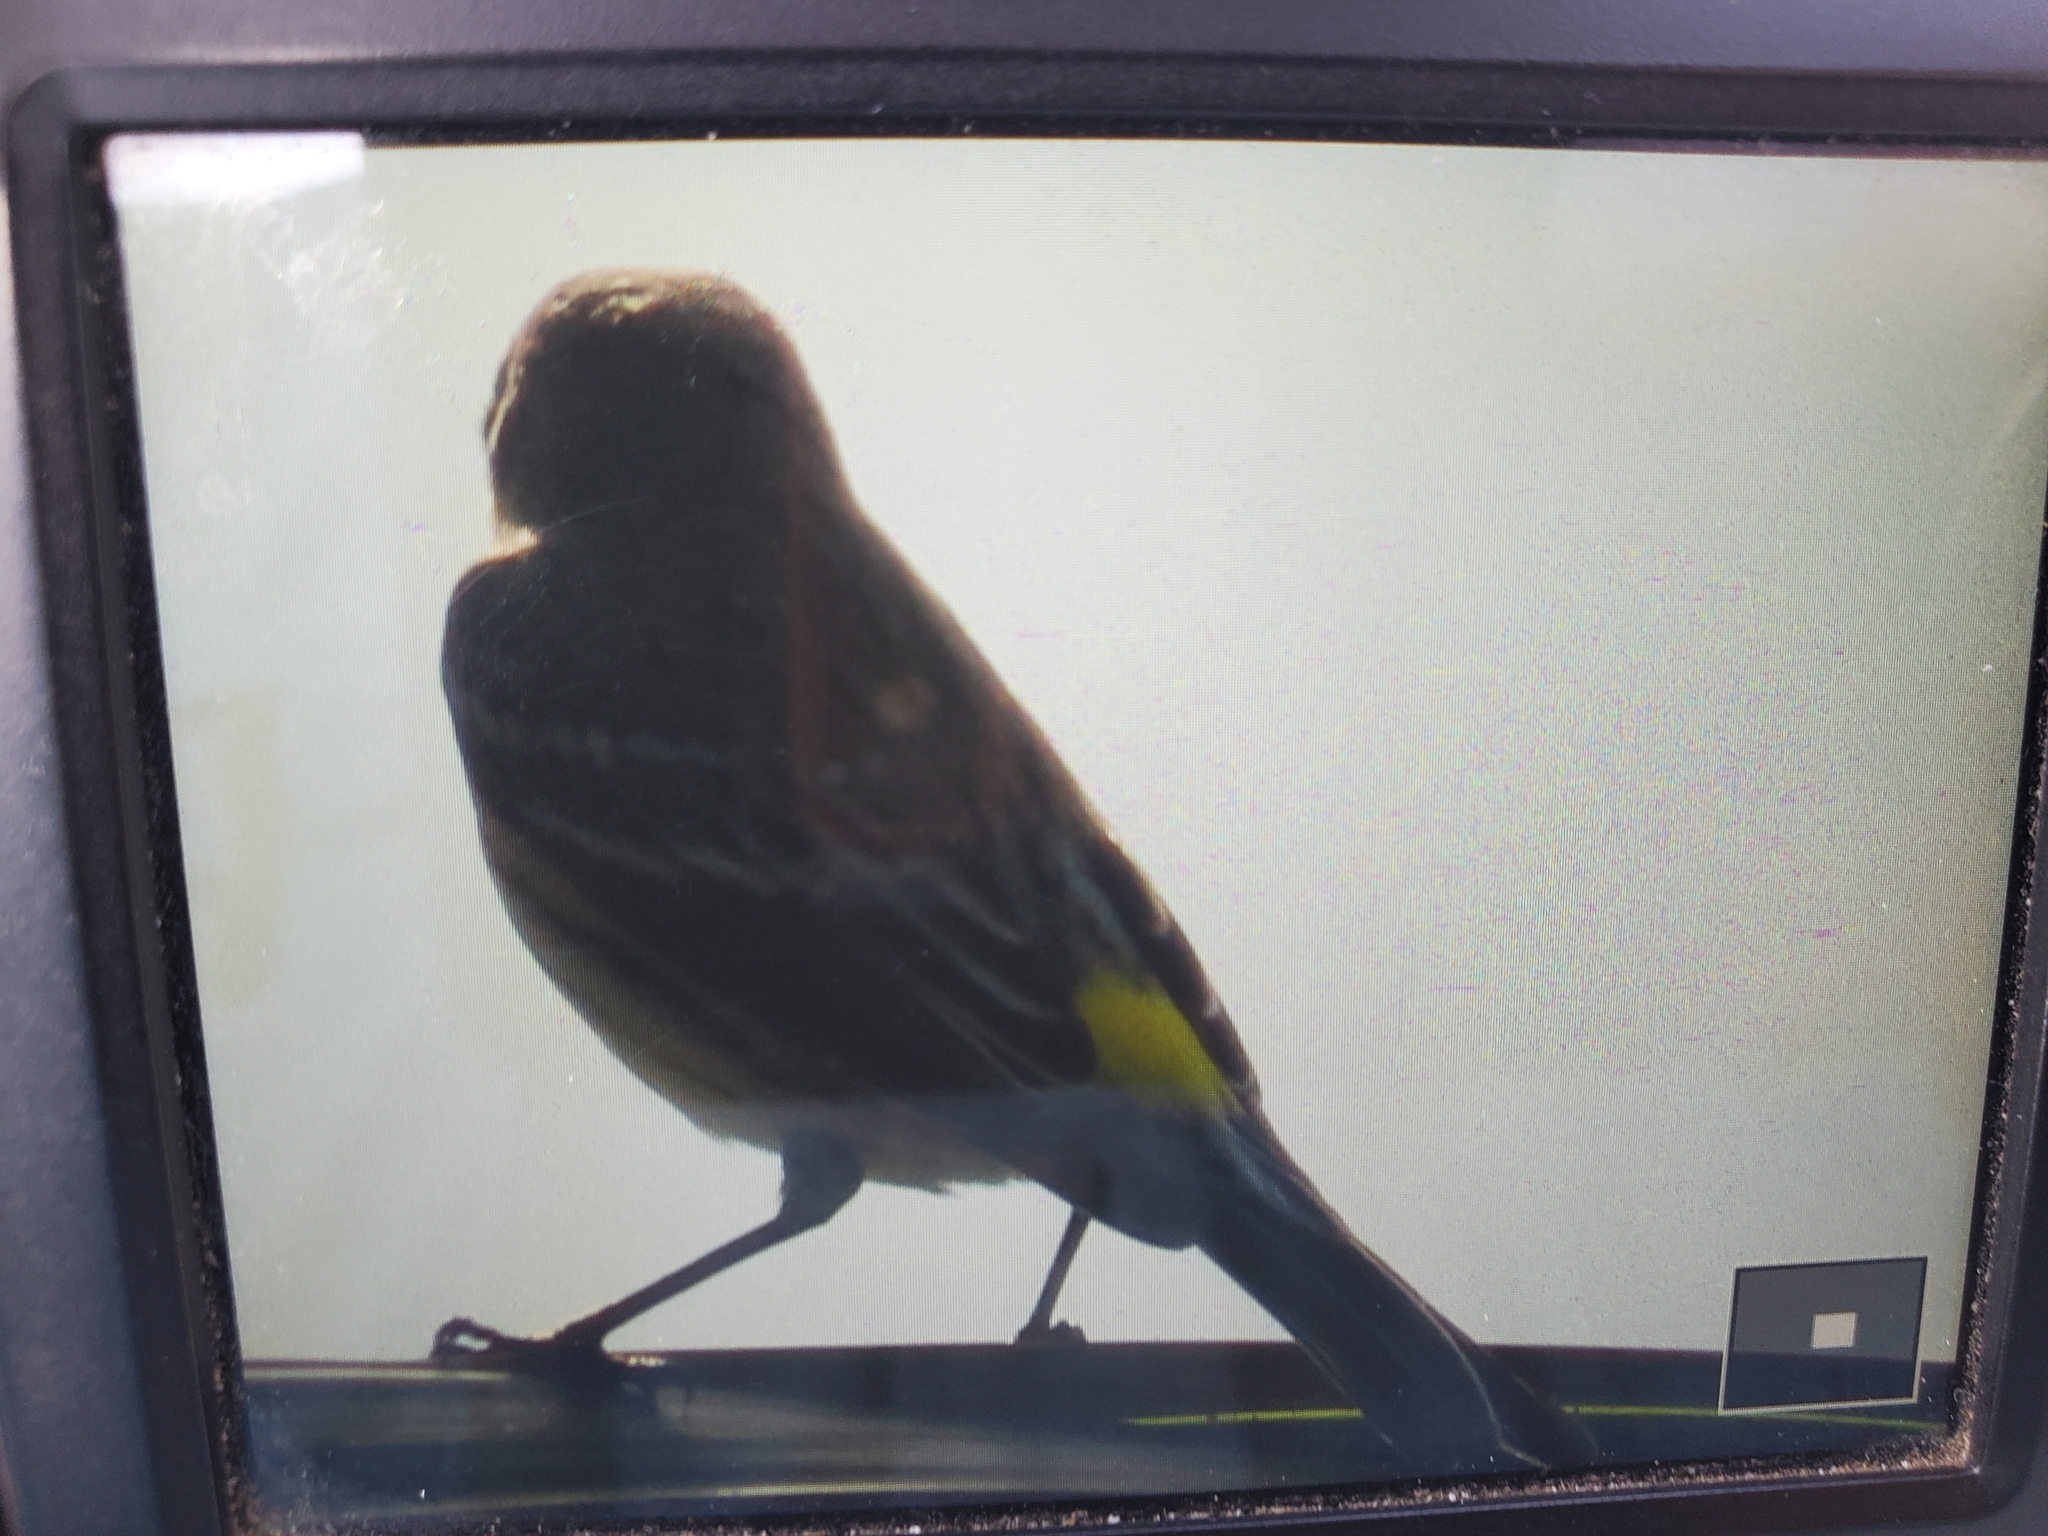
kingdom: Animalia
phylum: Chordata
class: Aves
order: Passeriformes
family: Parulidae
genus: Setophaga
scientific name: Setophaga coronata
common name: Myrtle warbler
